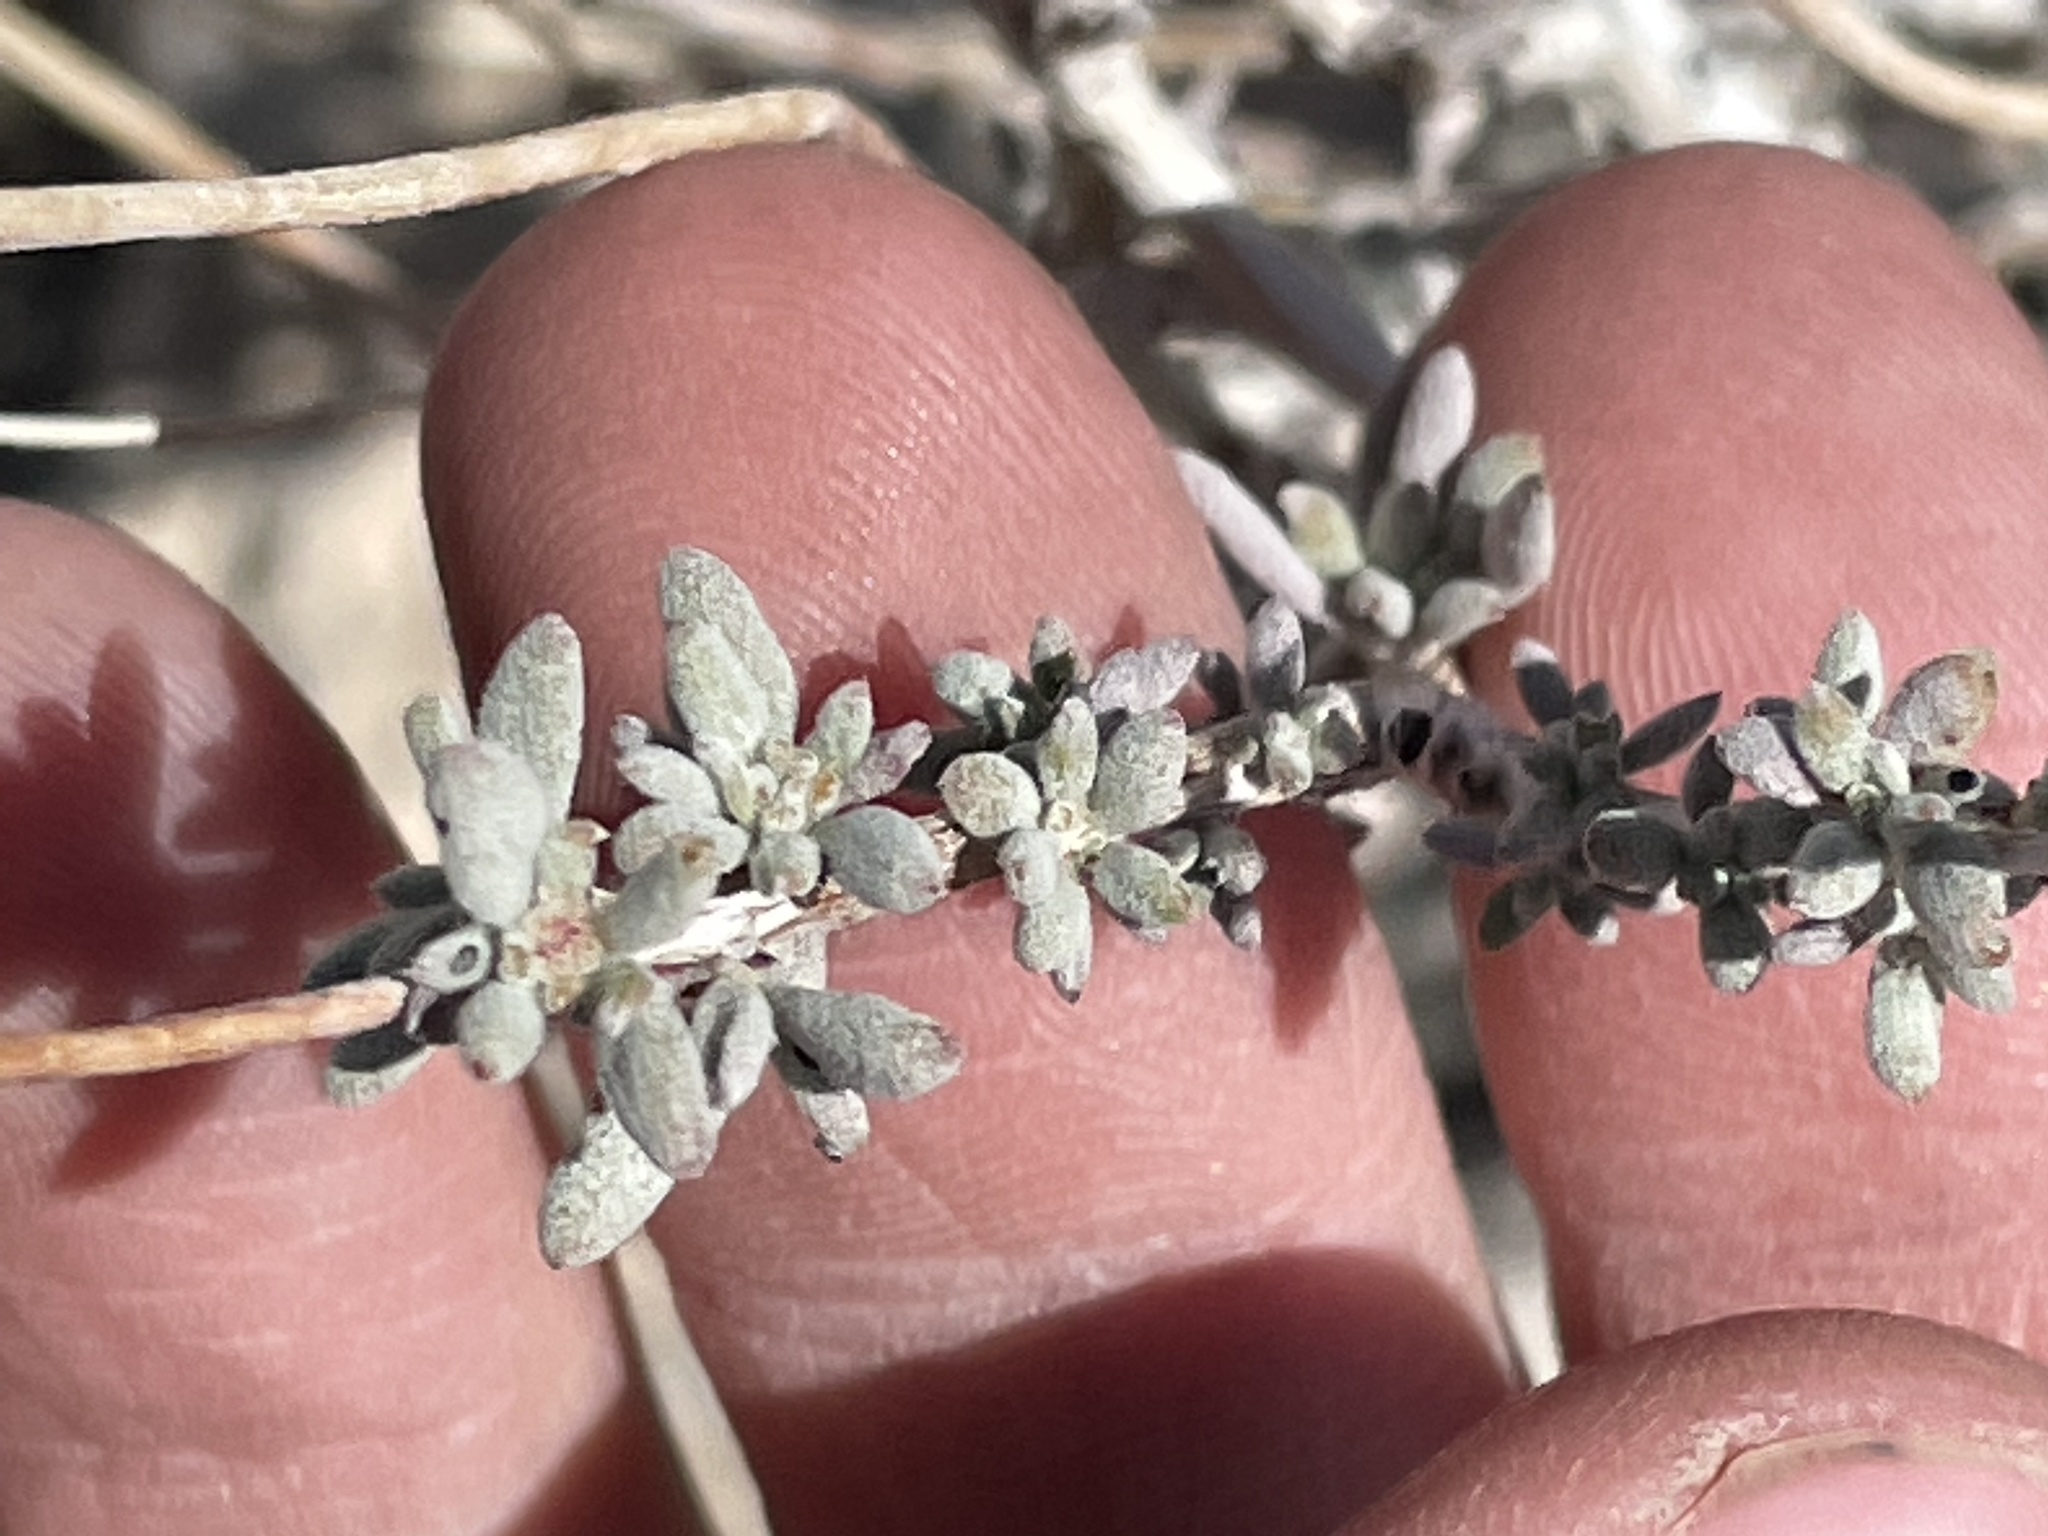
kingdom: Plantae
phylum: Tracheophyta
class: Magnoliopsida
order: Caryophyllales
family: Polygonaceae
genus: Eriogonum
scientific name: Eriogonum fasciculatum
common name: California wild buckwheat
